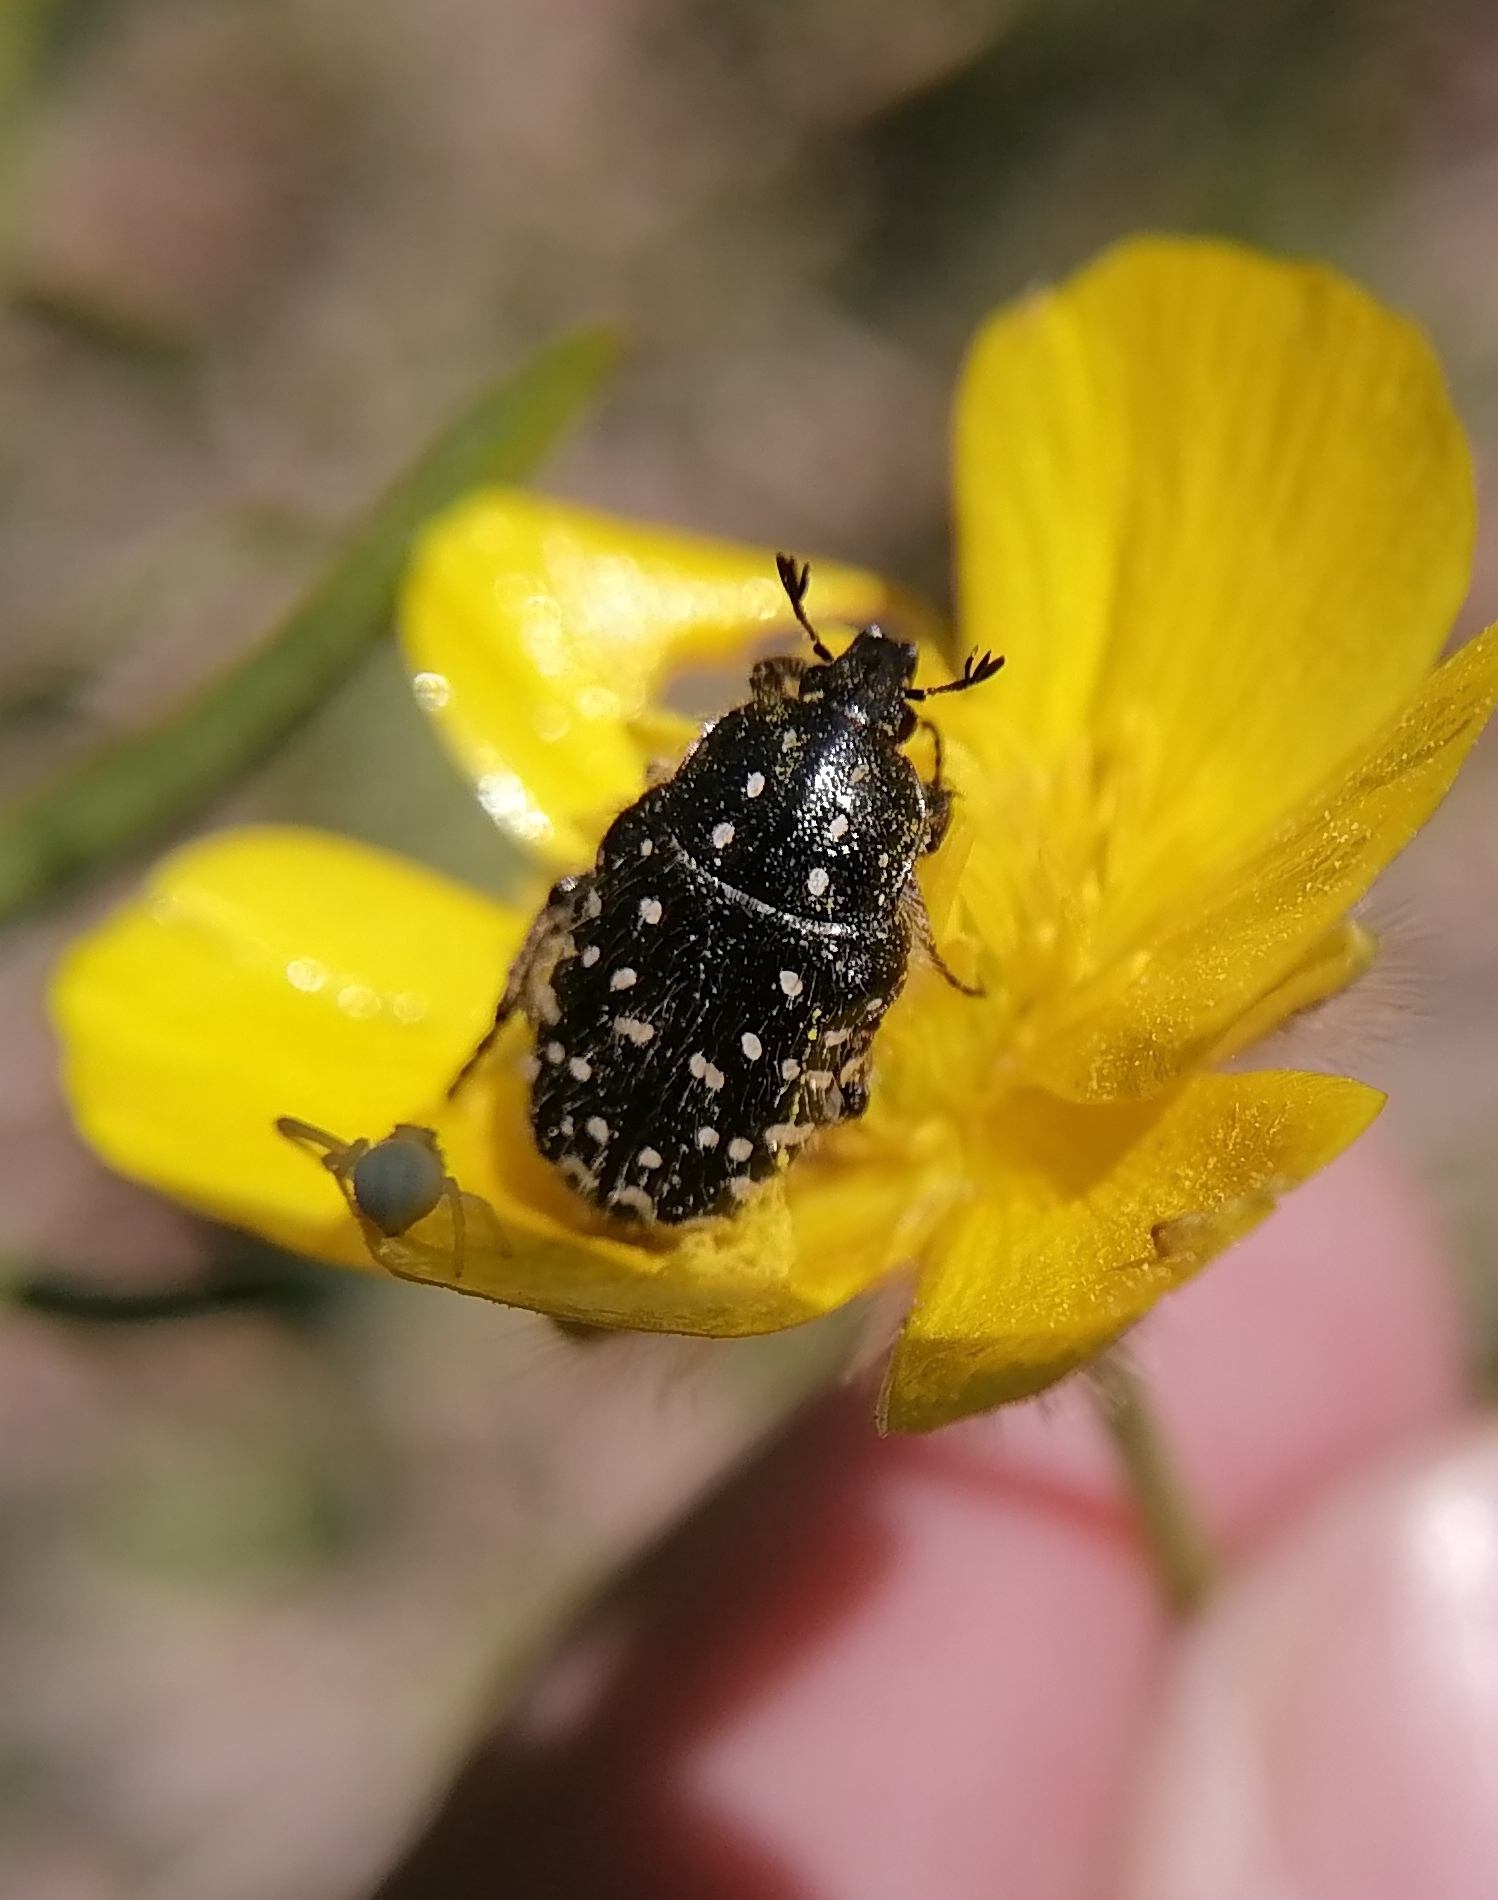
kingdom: Animalia
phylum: Arthropoda
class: Insecta
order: Coleoptera
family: Scarabaeidae
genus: Oxythyrea
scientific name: Oxythyrea funesta
